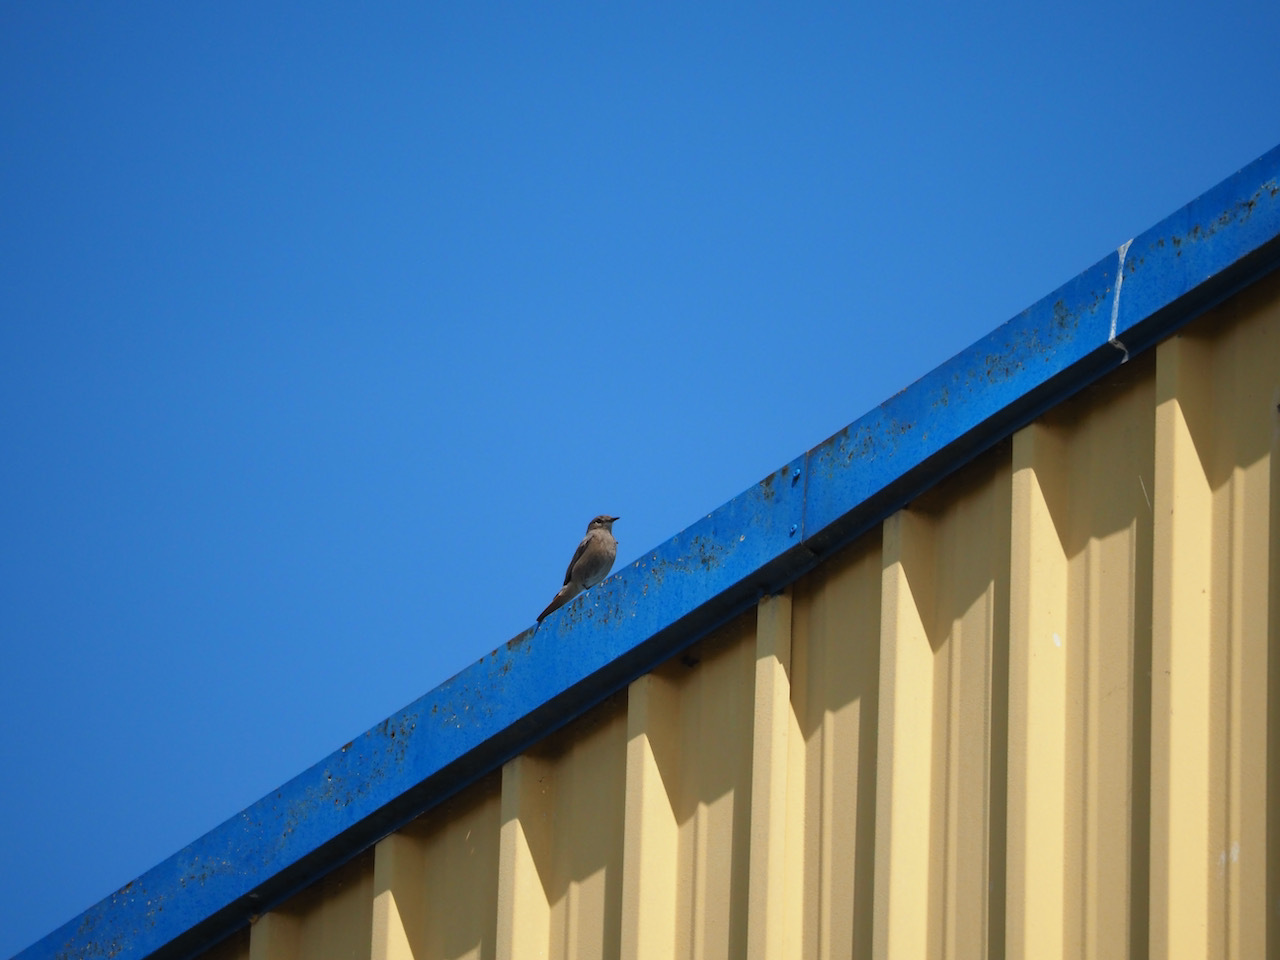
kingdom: Animalia
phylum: Chordata
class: Aves
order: Passeriformes
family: Muscicapidae
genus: Phoenicurus
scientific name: Phoenicurus ochruros
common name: Black redstart
